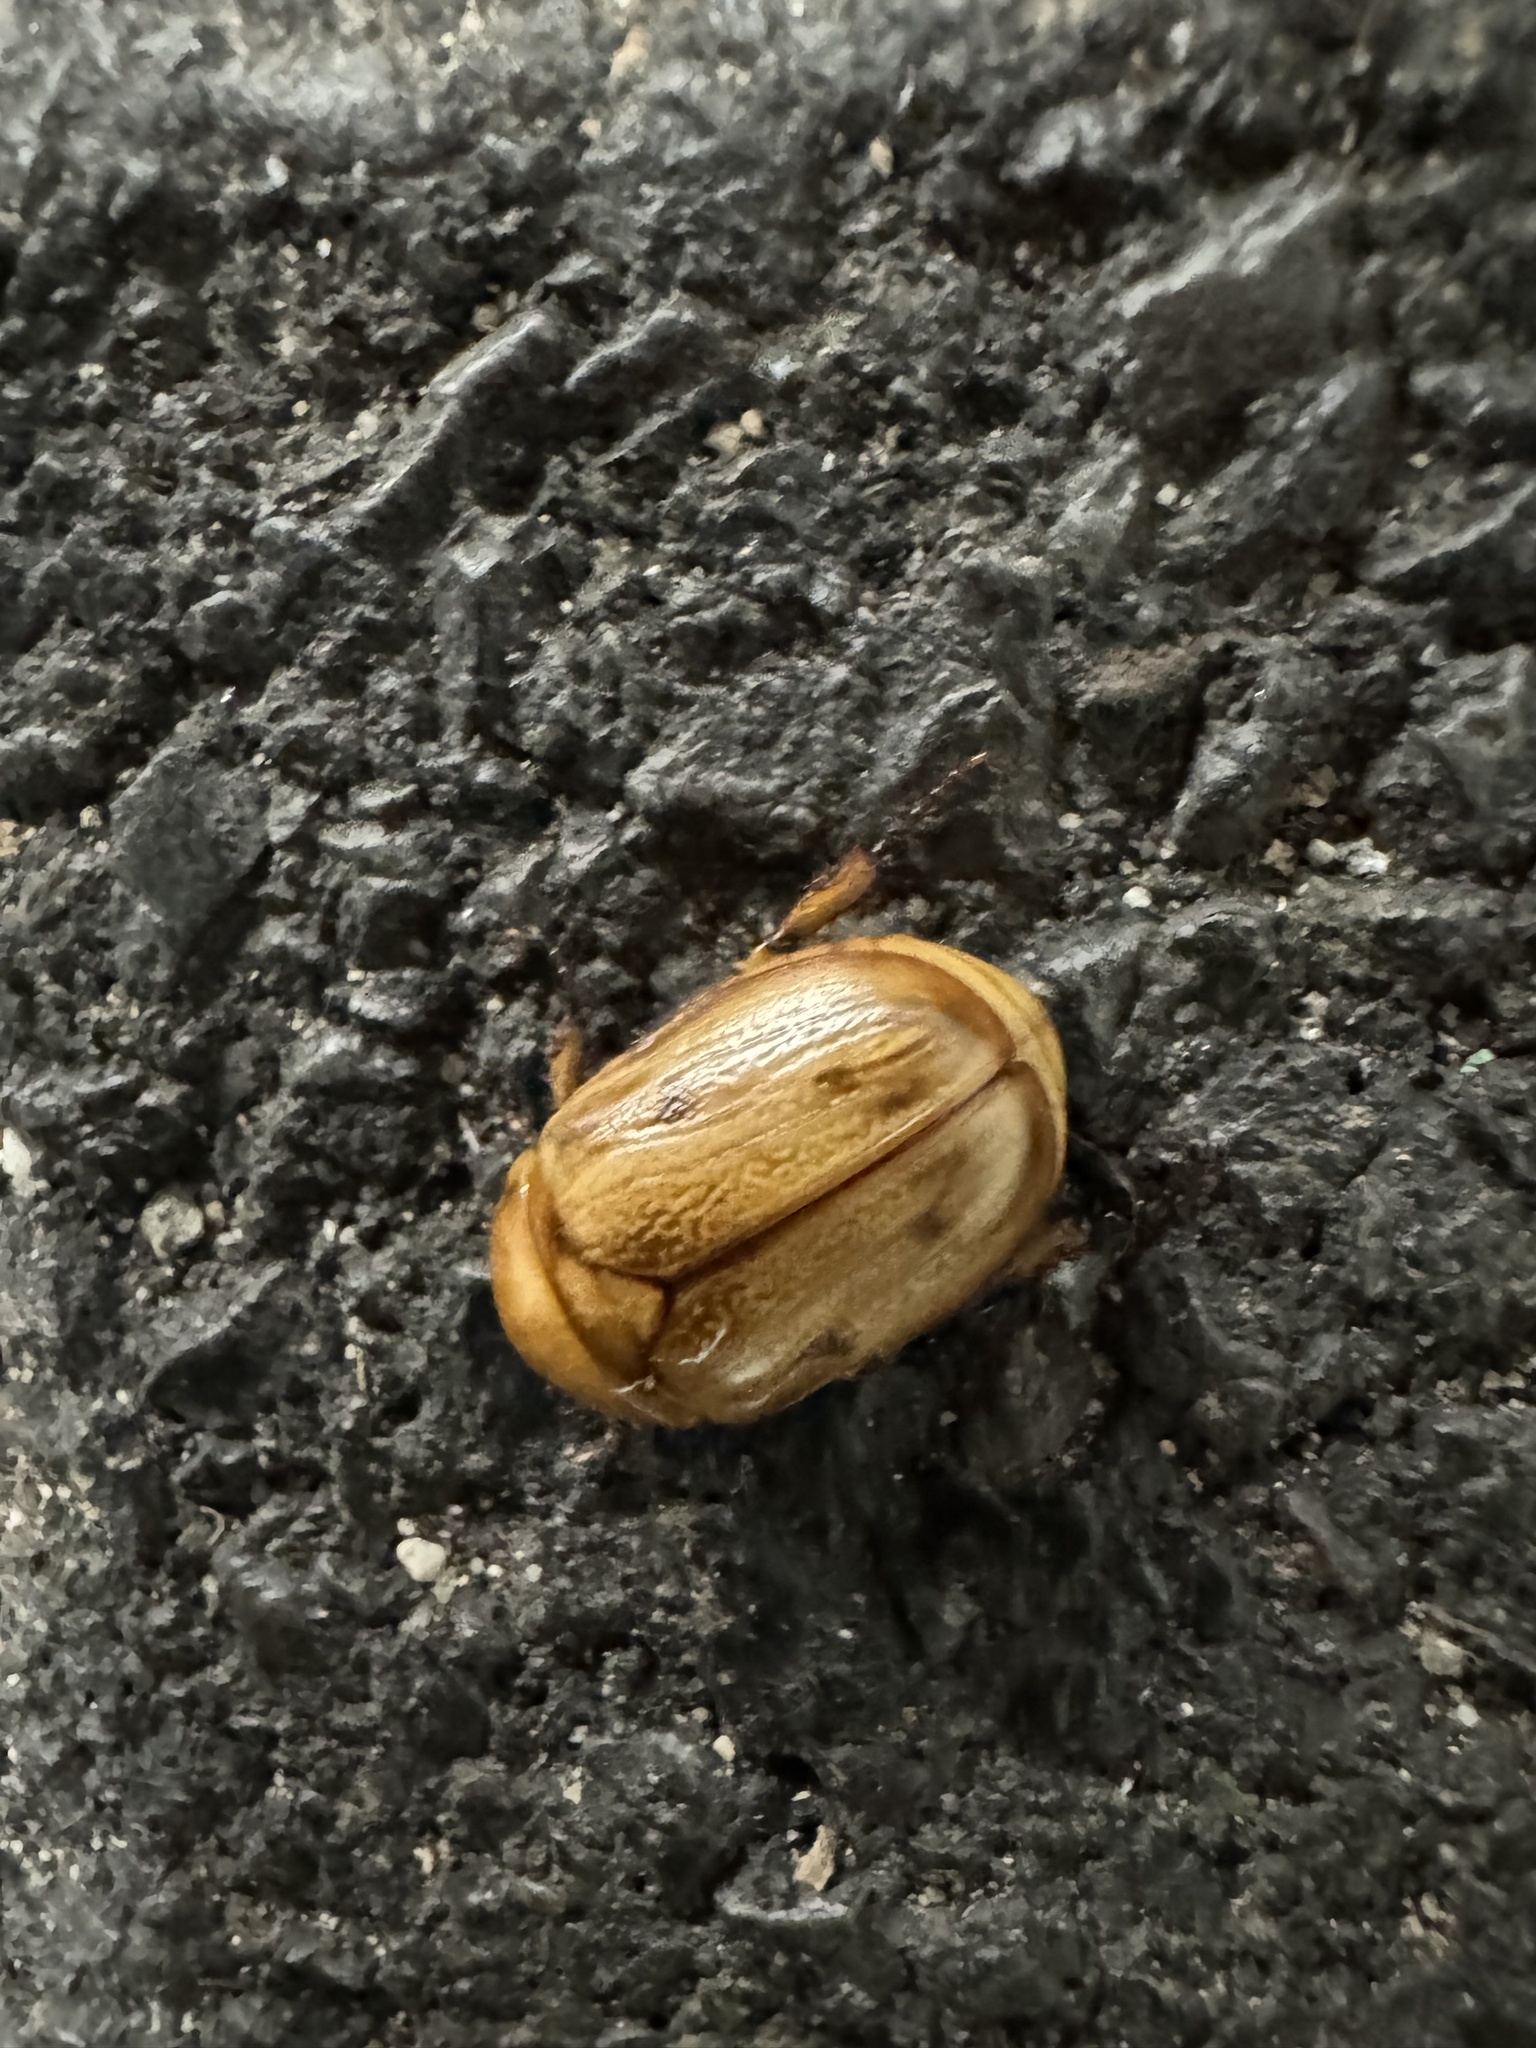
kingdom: Animalia
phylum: Arthropoda
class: Insecta
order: Coleoptera
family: Scarabaeidae
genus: Cyclocephala
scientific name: Cyclocephala signaticollis
